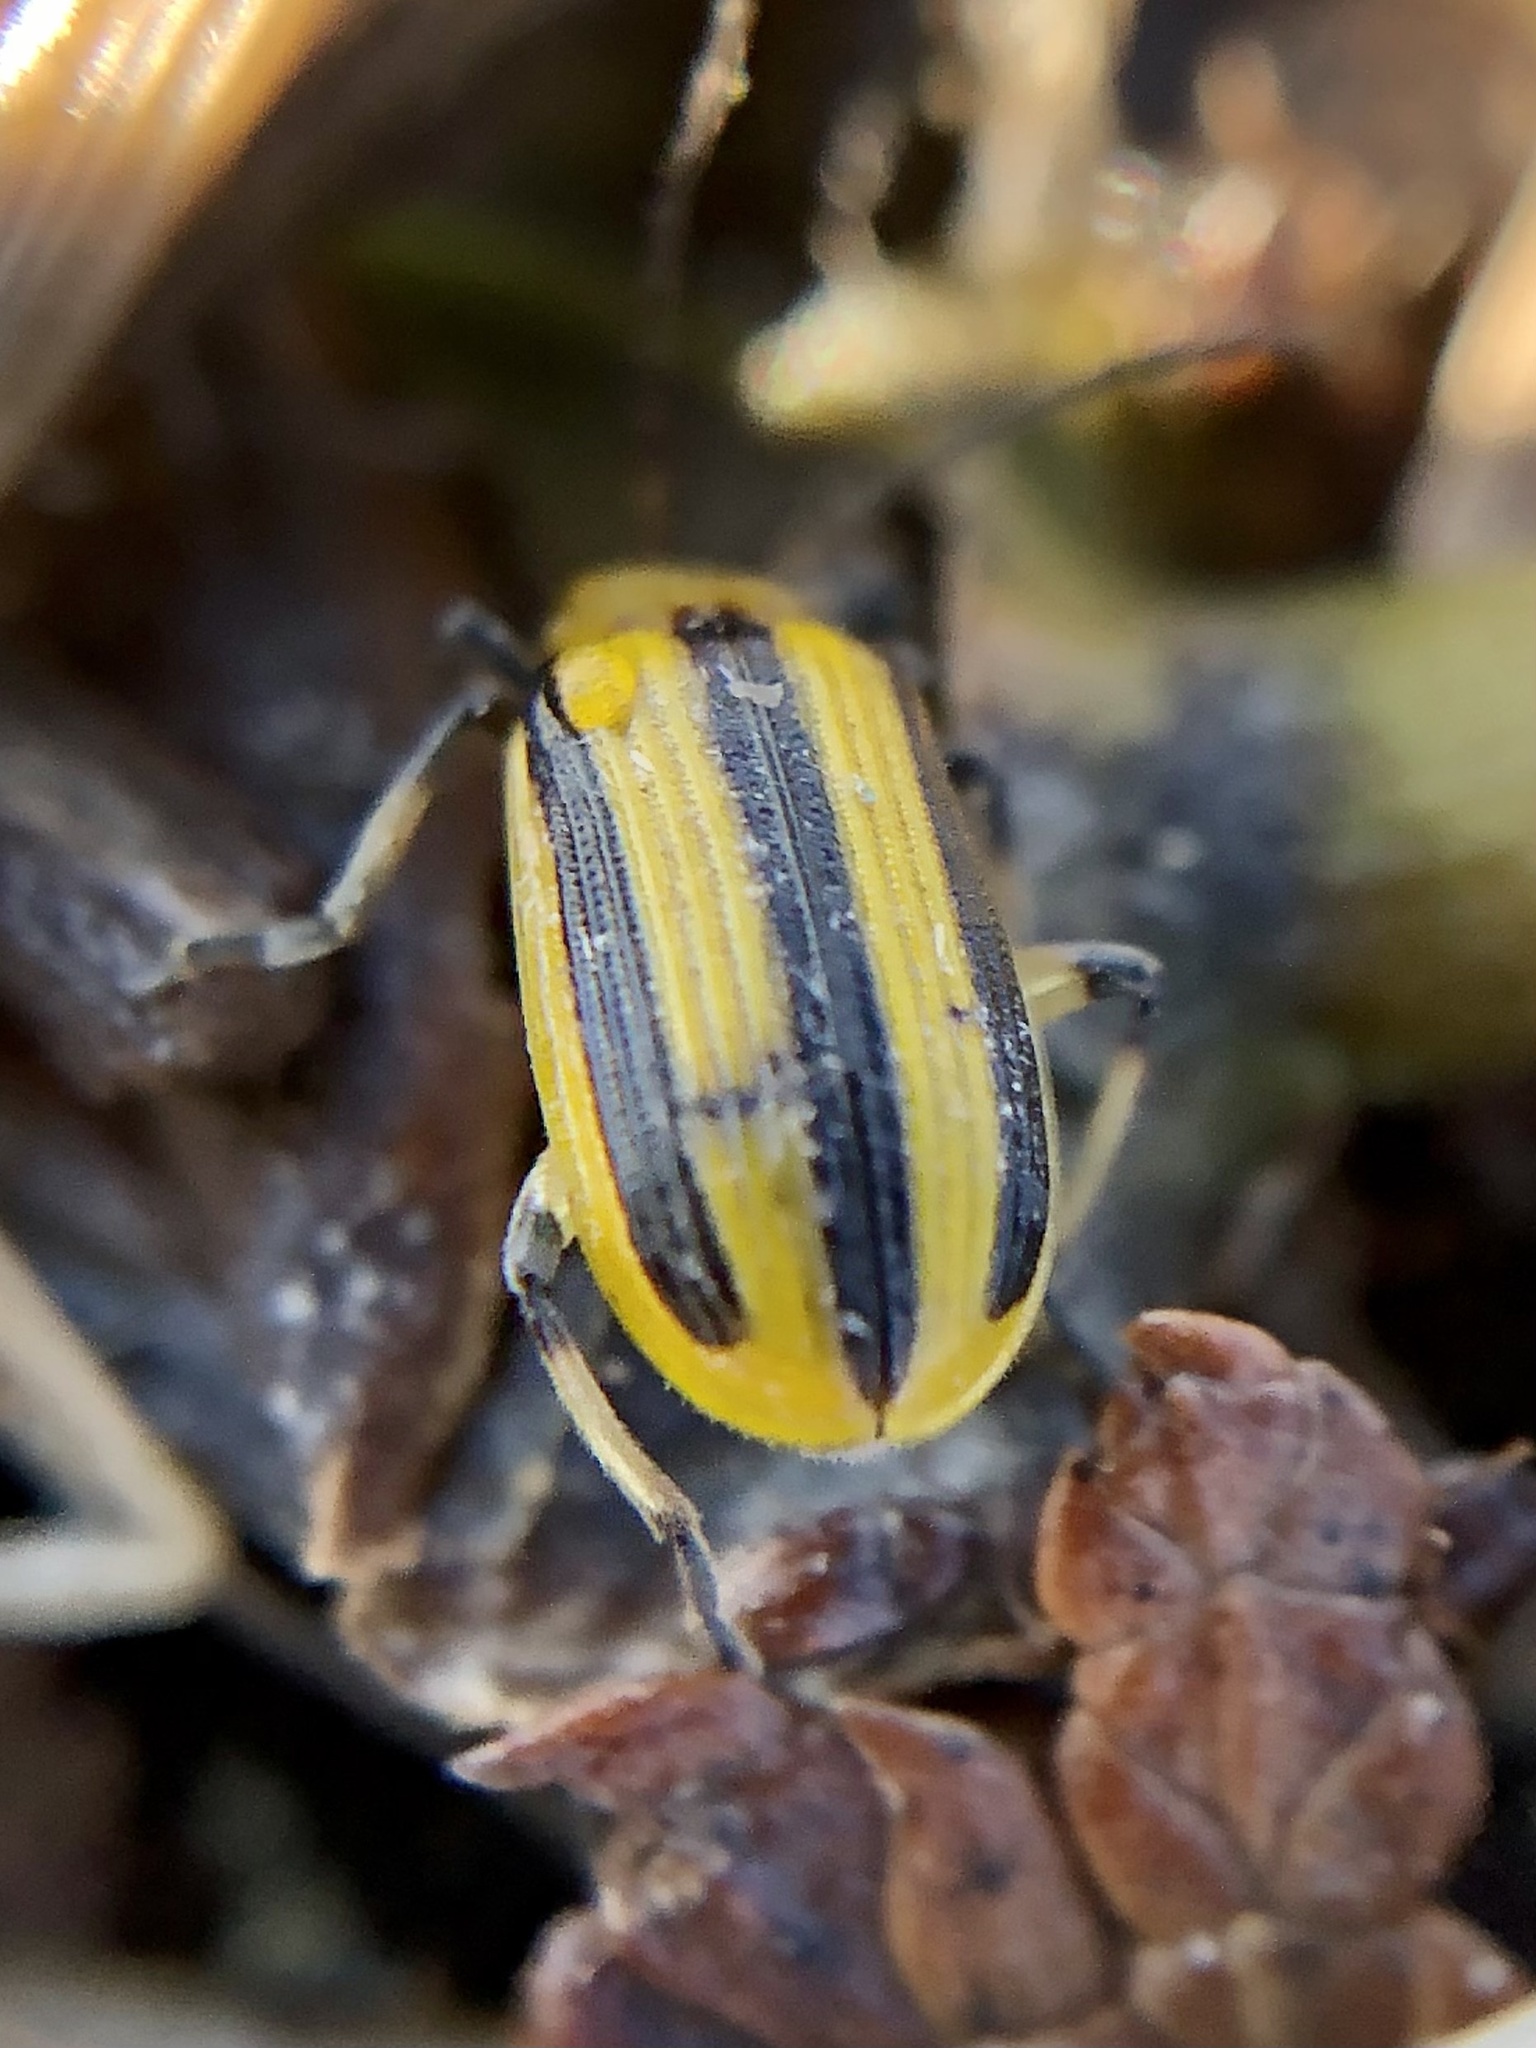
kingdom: Animalia
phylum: Arthropoda
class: Insecta
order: Coleoptera
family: Chrysomelidae
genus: Acalymma
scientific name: Acalymma vittatum
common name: Striped cucumber beetle
